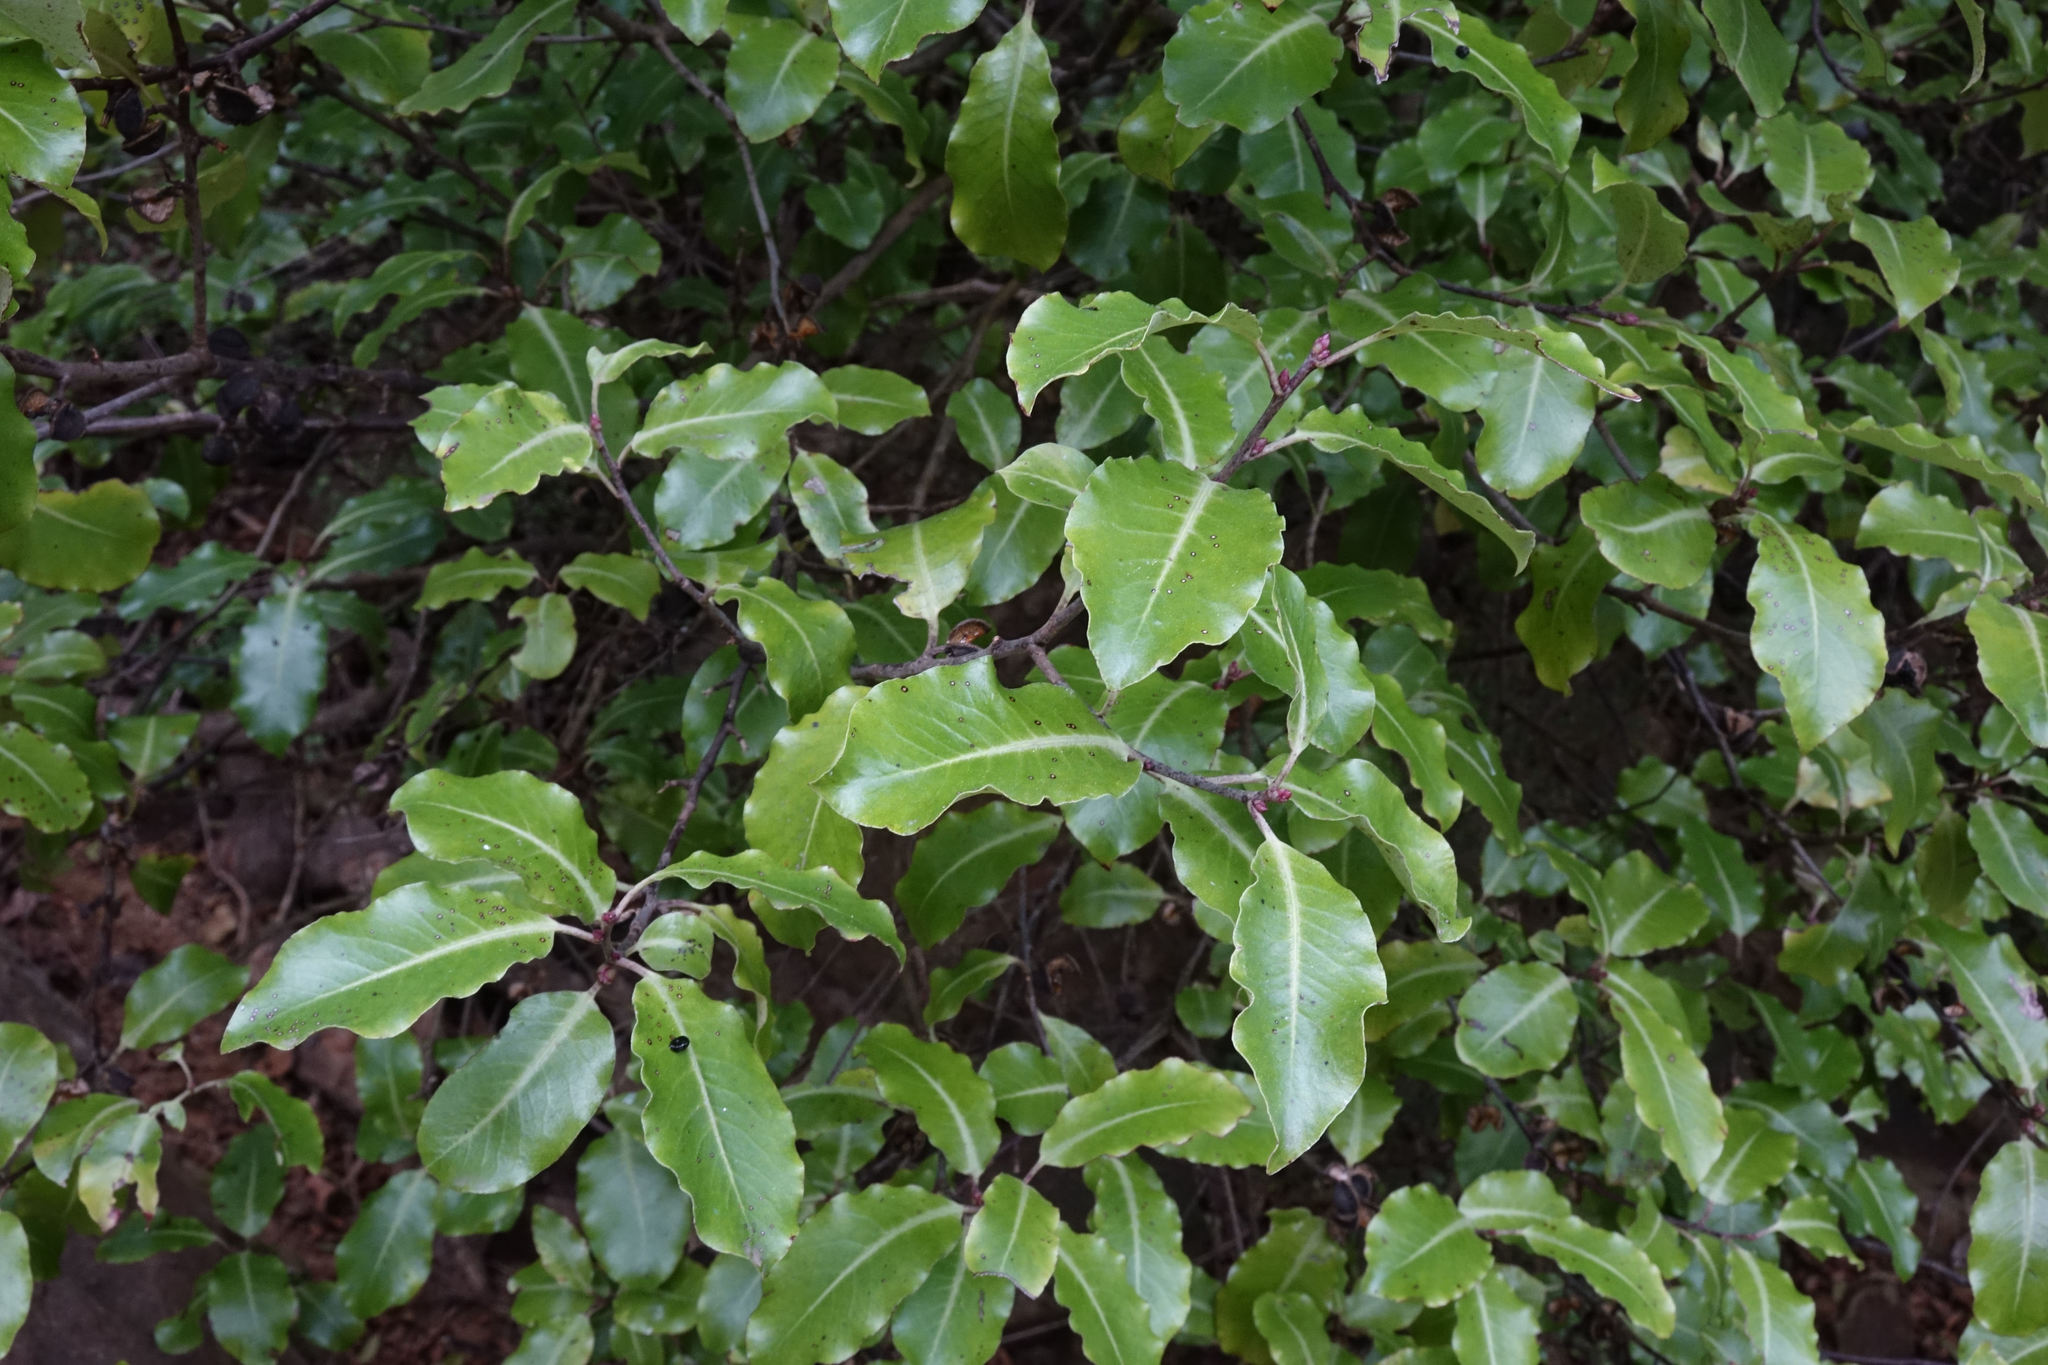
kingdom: Plantae
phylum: Tracheophyta
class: Magnoliopsida
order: Apiales
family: Pittosporaceae
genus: Pittosporum
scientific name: Pittosporum tenuifolium
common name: Kohuhu
